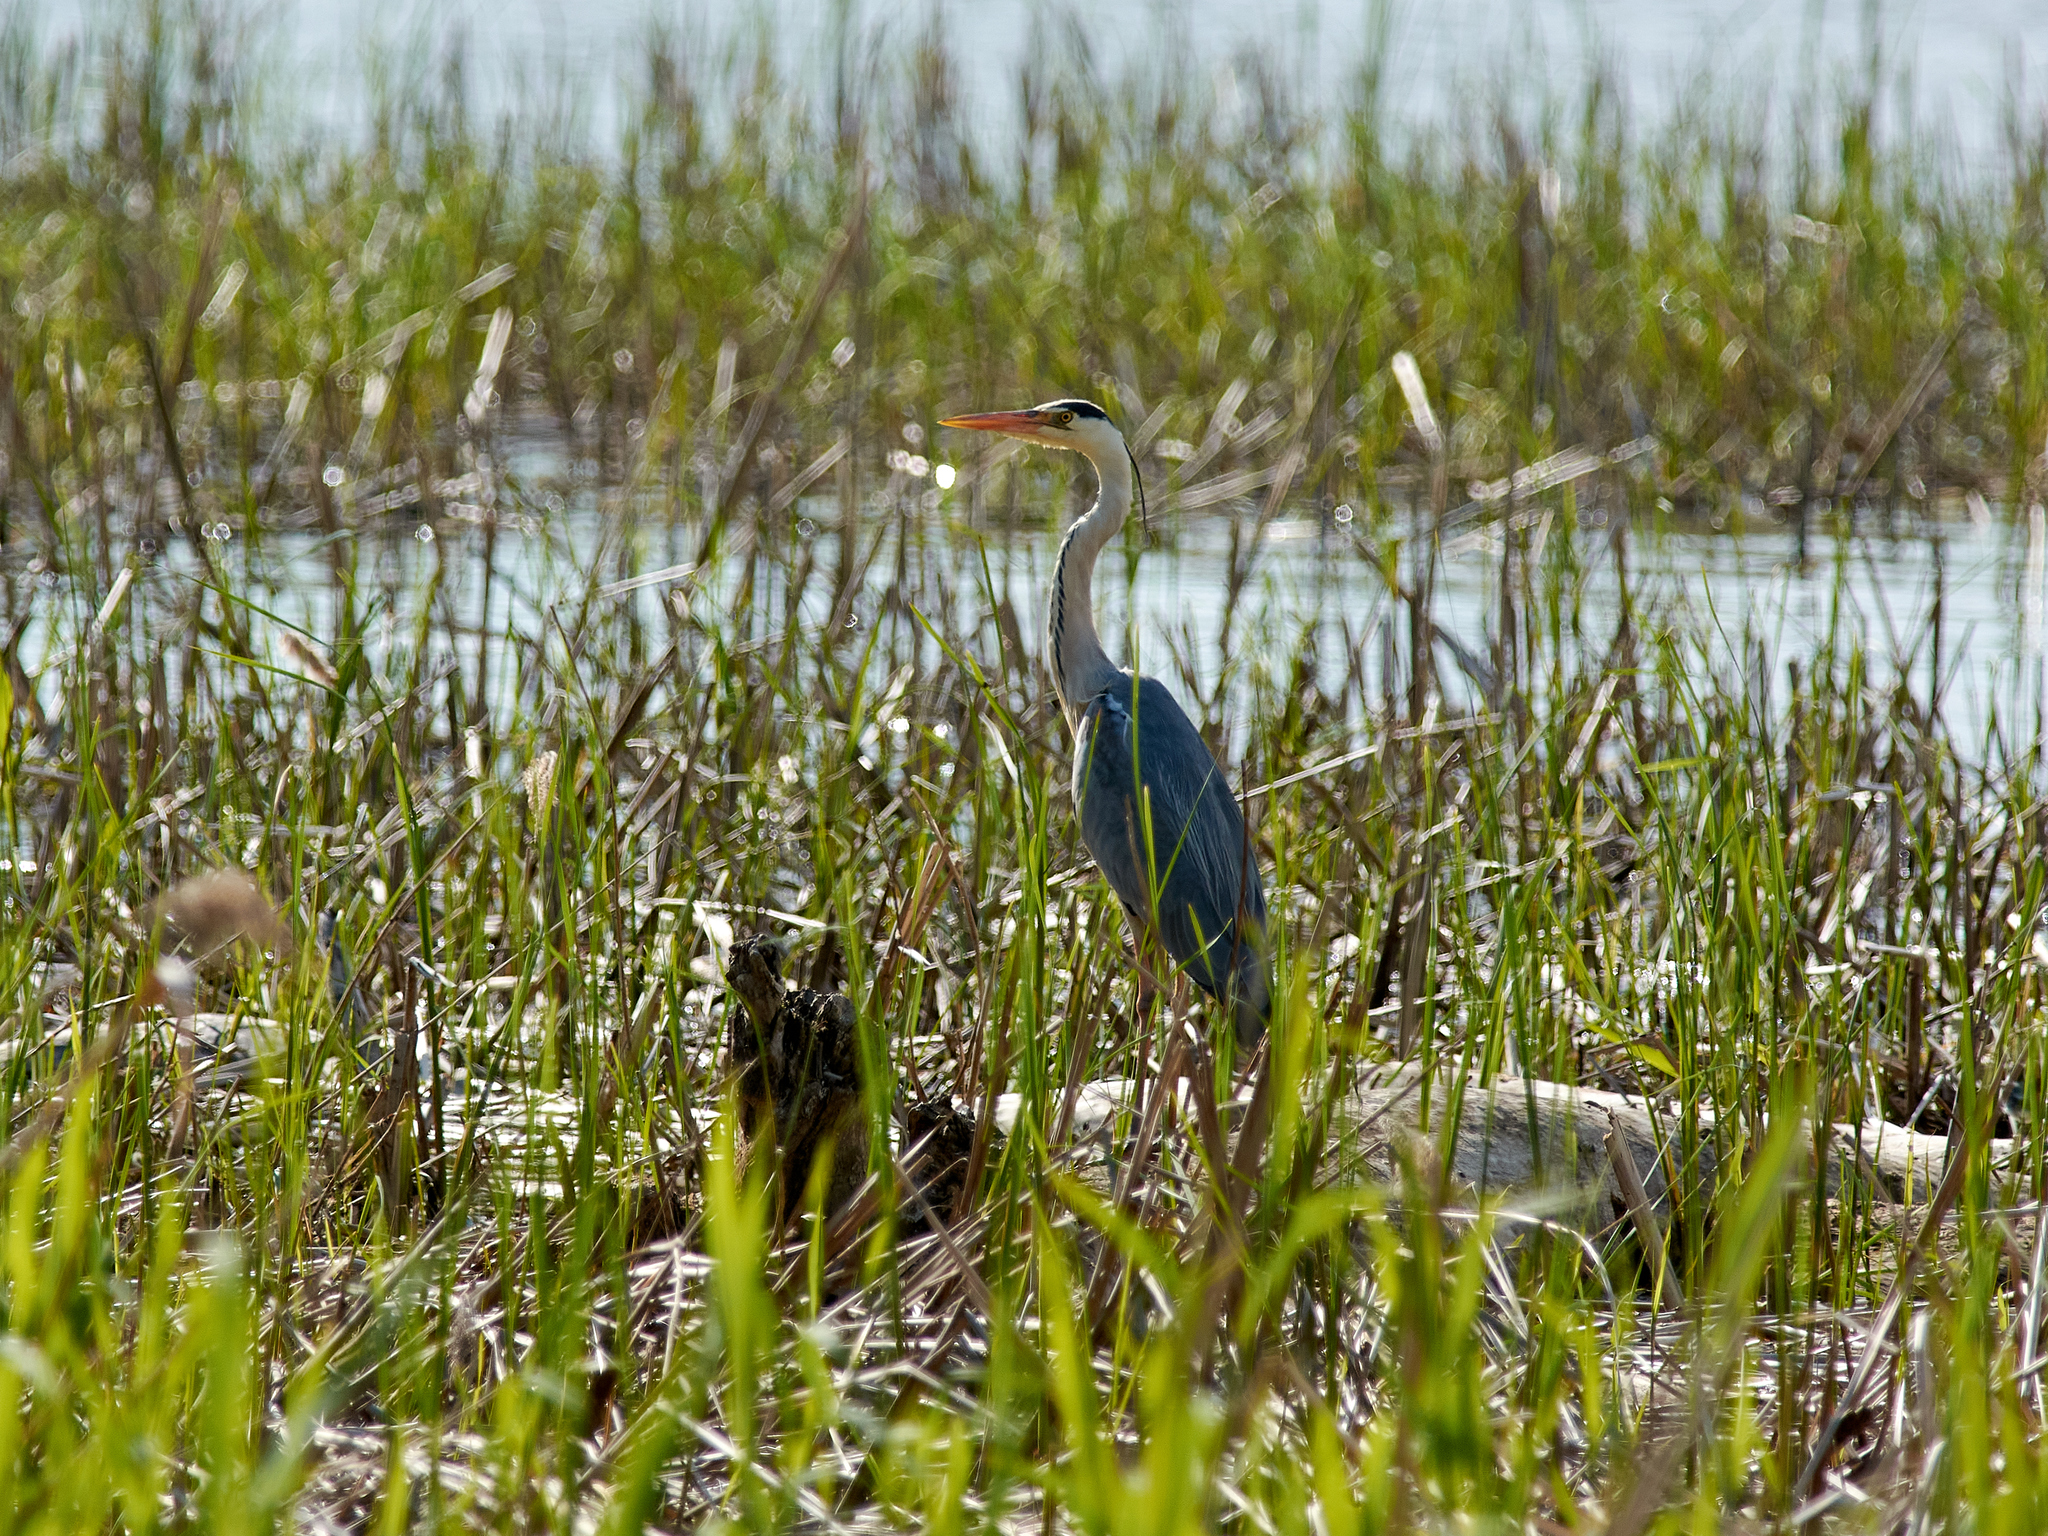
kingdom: Animalia
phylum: Chordata
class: Aves
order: Pelecaniformes
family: Ardeidae
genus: Ardea
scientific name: Ardea cinerea
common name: Grey heron
